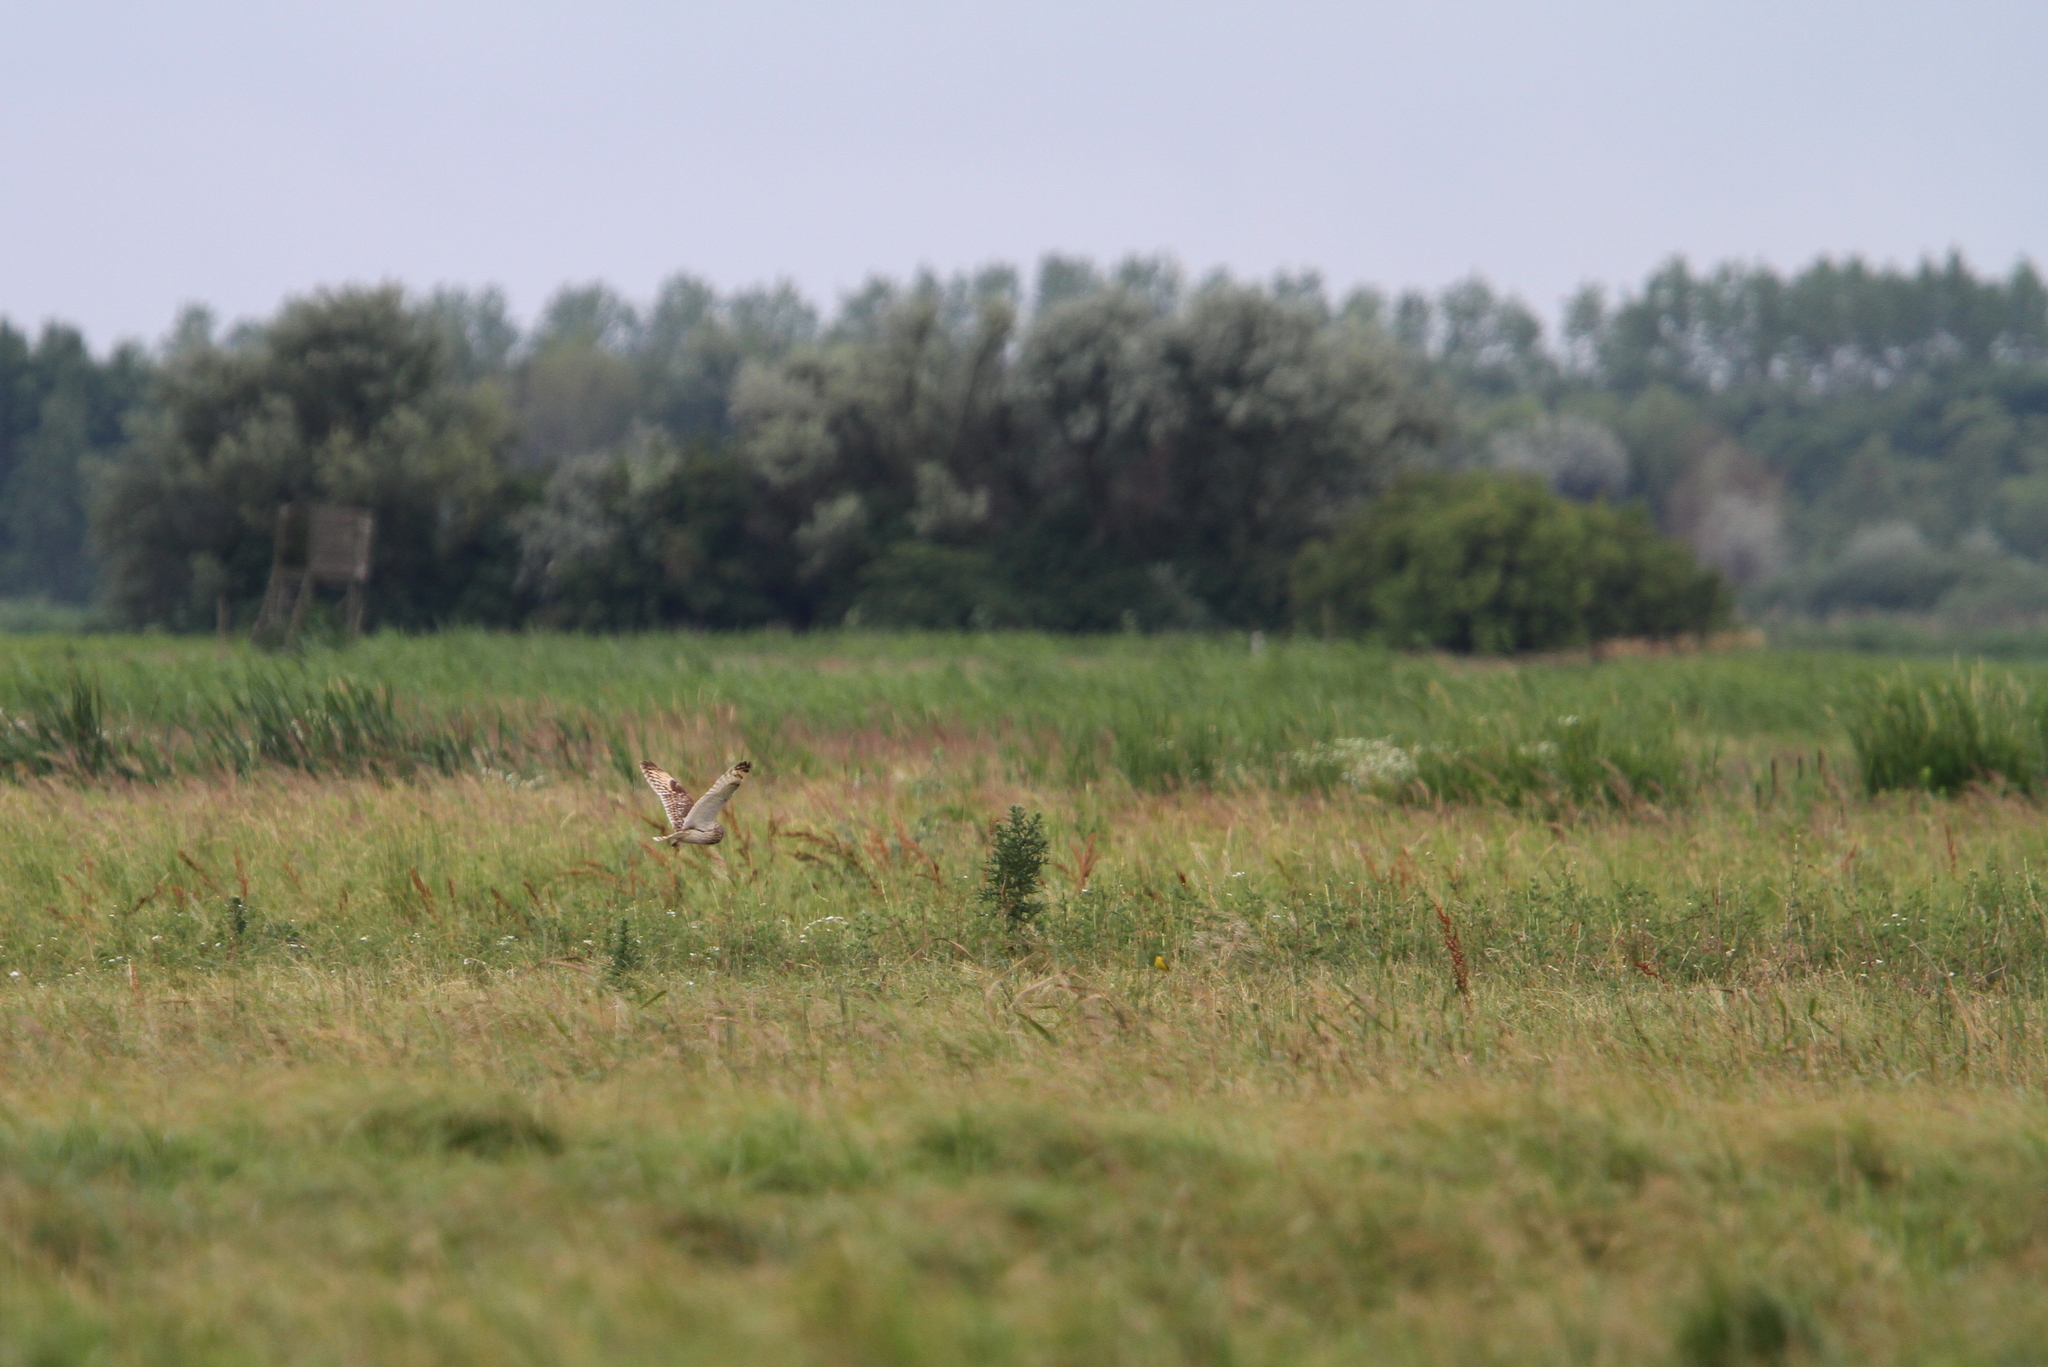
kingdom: Animalia
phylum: Chordata
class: Aves
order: Strigiformes
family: Strigidae
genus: Asio
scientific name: Asio flammeus
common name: Short-eared owl
